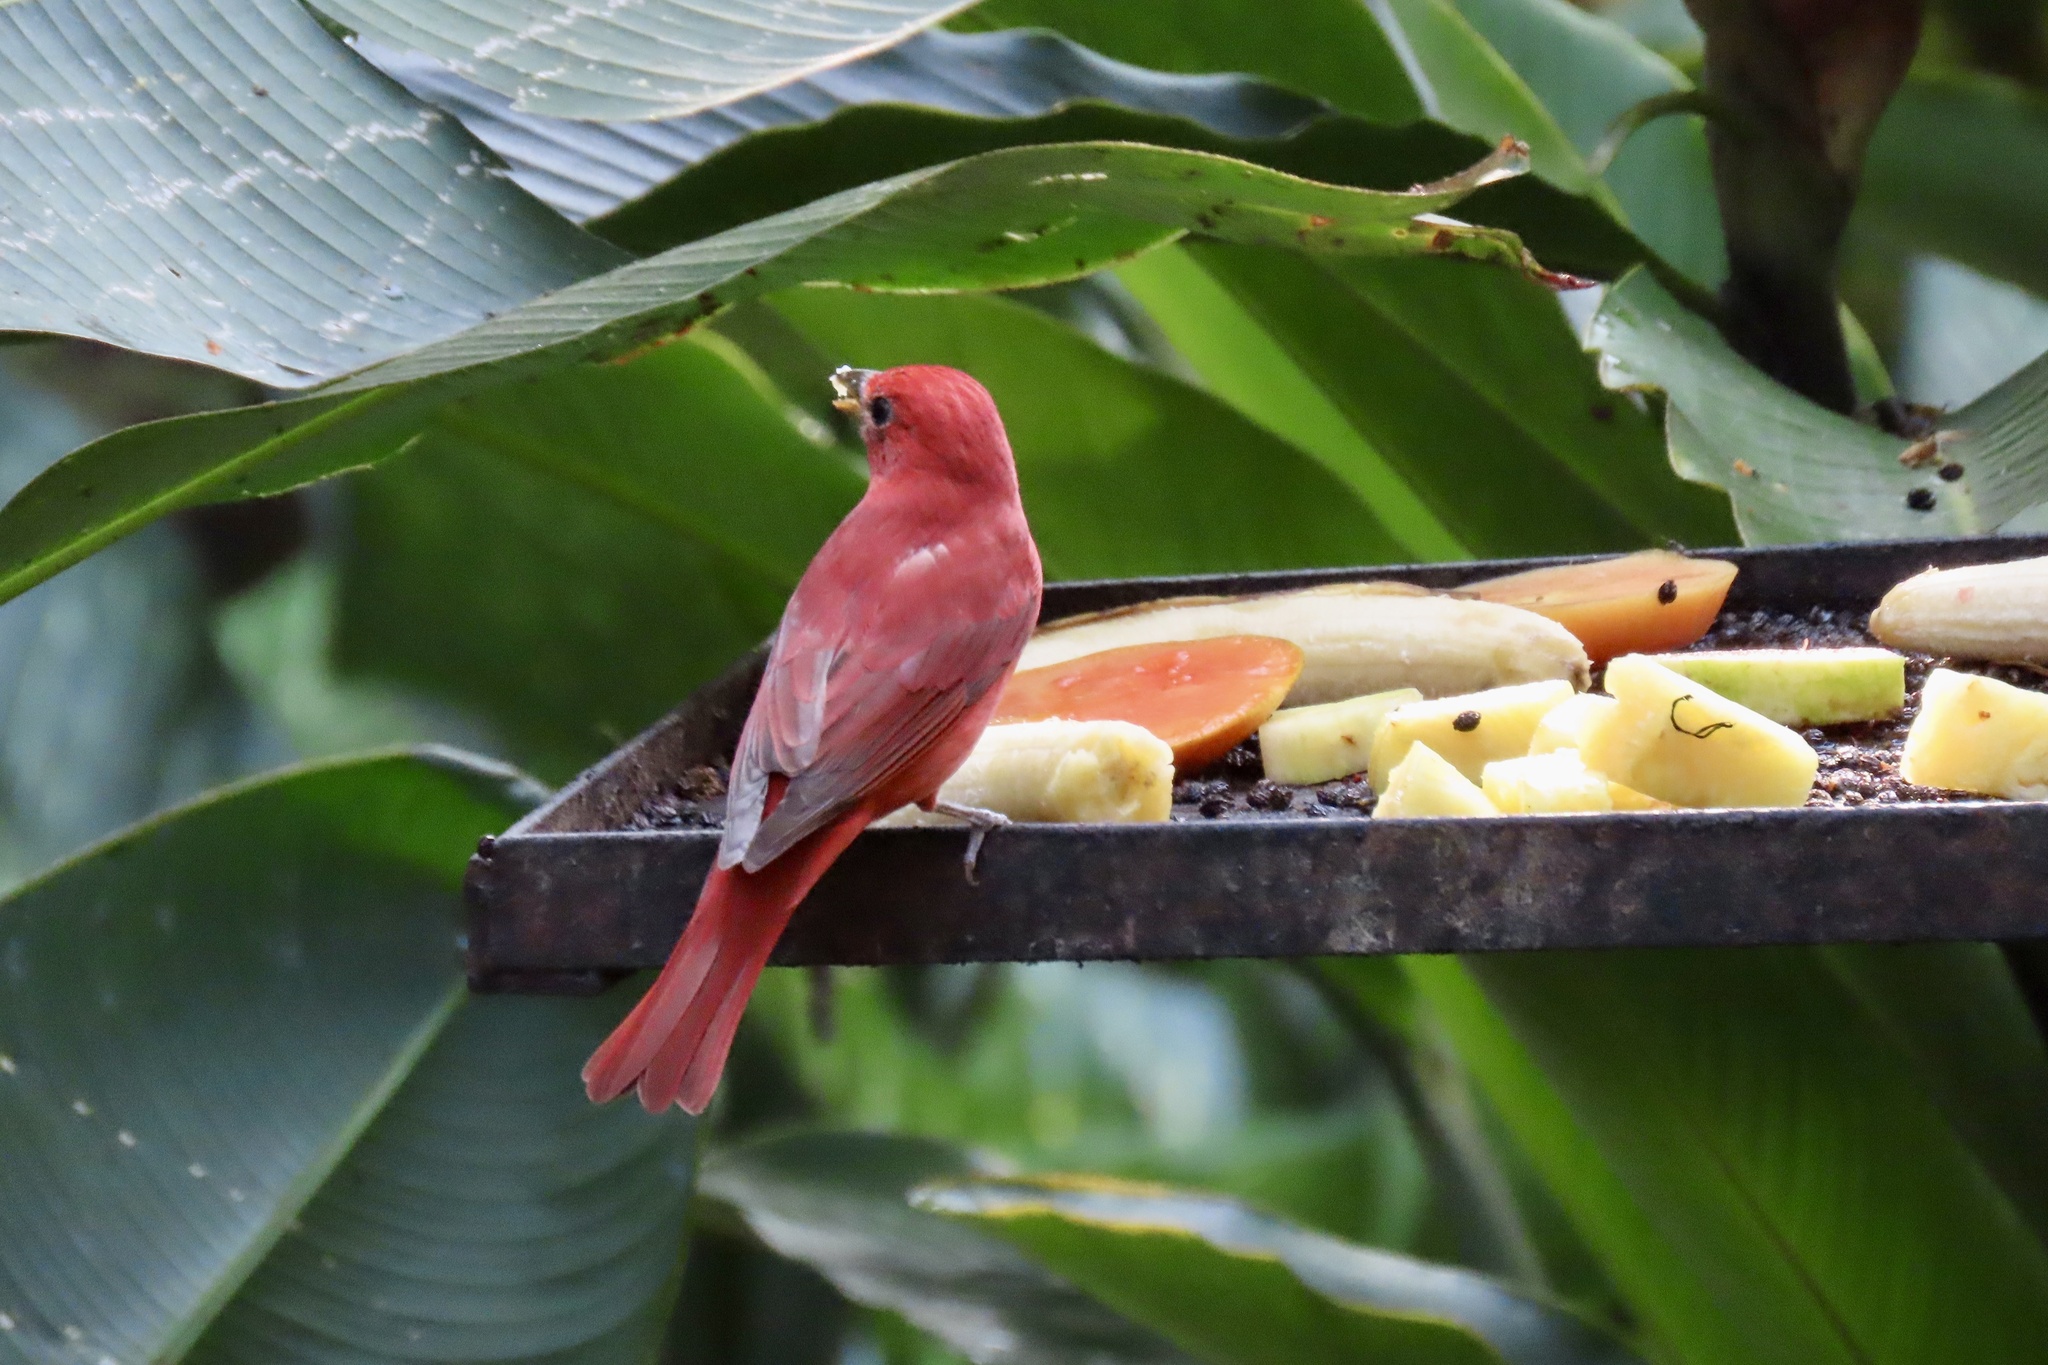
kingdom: Animalia
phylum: Chordata
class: Aves
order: Passeriformes
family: Cardinalidae
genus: Piranga
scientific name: Piranga rubra
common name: Summer tanager
